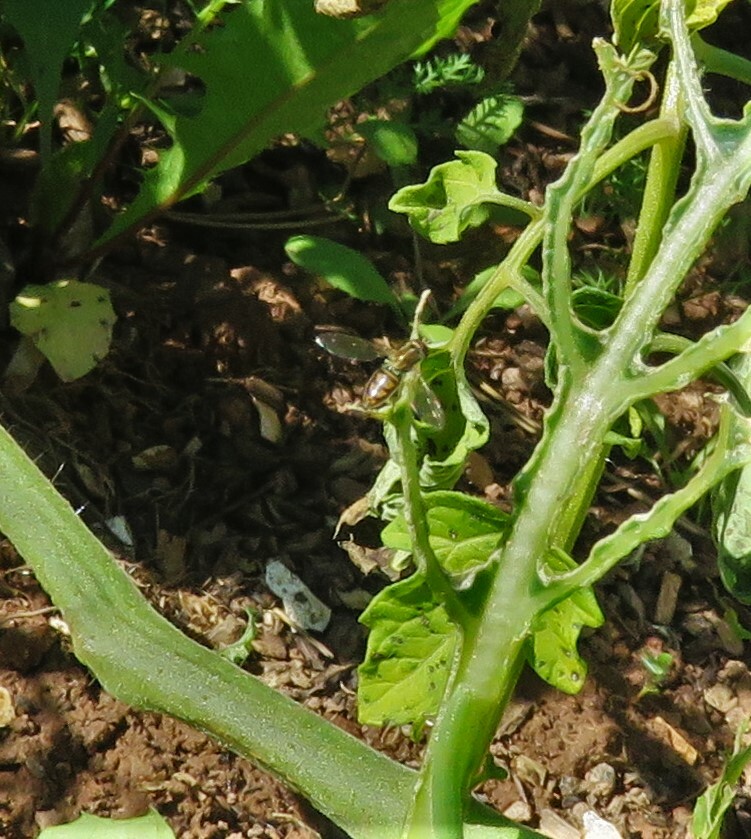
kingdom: Animalia
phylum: Arthropoda
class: Insecta
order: Diptera
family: Syrphidae
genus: Toxomerus
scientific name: Toxomerus marginatus
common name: Syrphid fly
